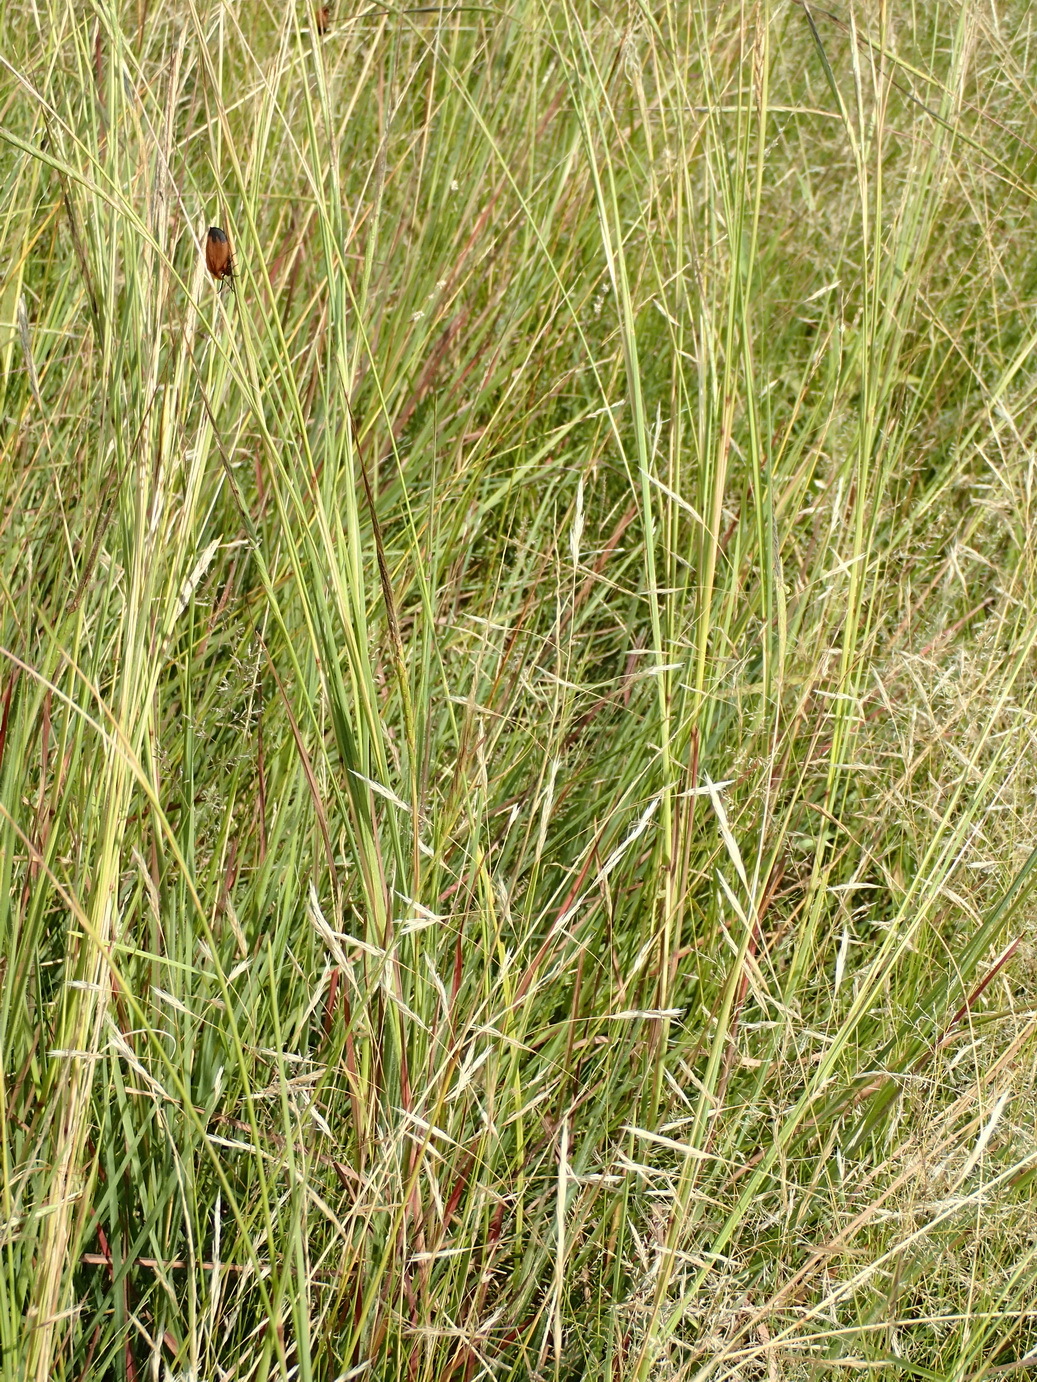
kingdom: Plantae
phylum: Tracheophyta
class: Liliopsida
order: Poales
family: Poaceae
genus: Heteropogon
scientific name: Heteropogon contortus
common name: Tanglehead
